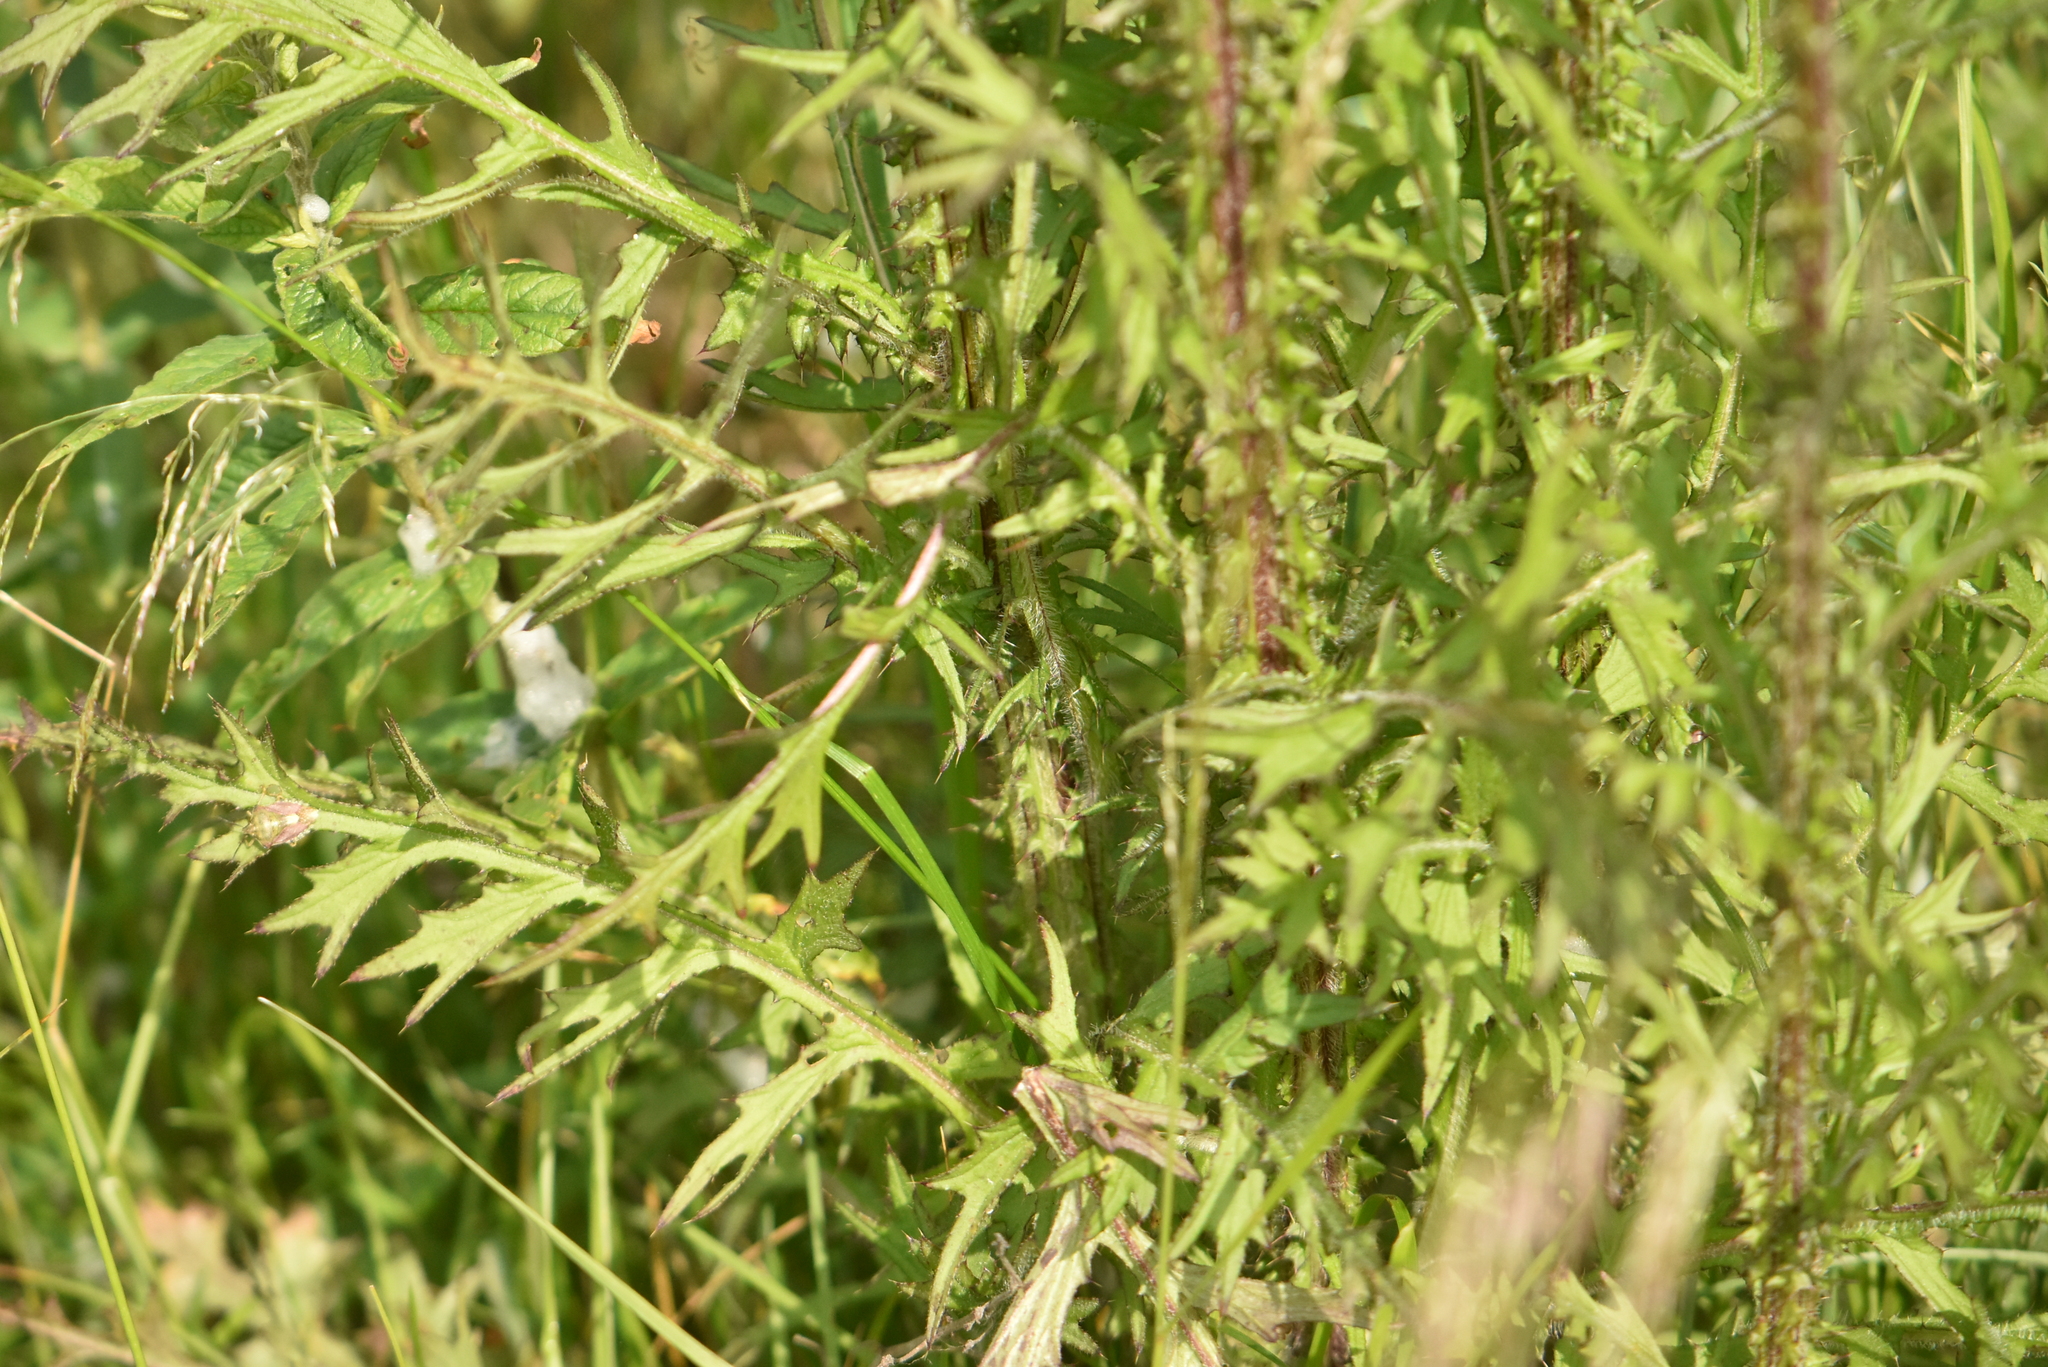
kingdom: Plantae
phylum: Tracheophyta
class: Magnoliopsida
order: Asterales
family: Asteraceae
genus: Cirsium
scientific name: Cirsium palustre
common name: Marsh thistle
